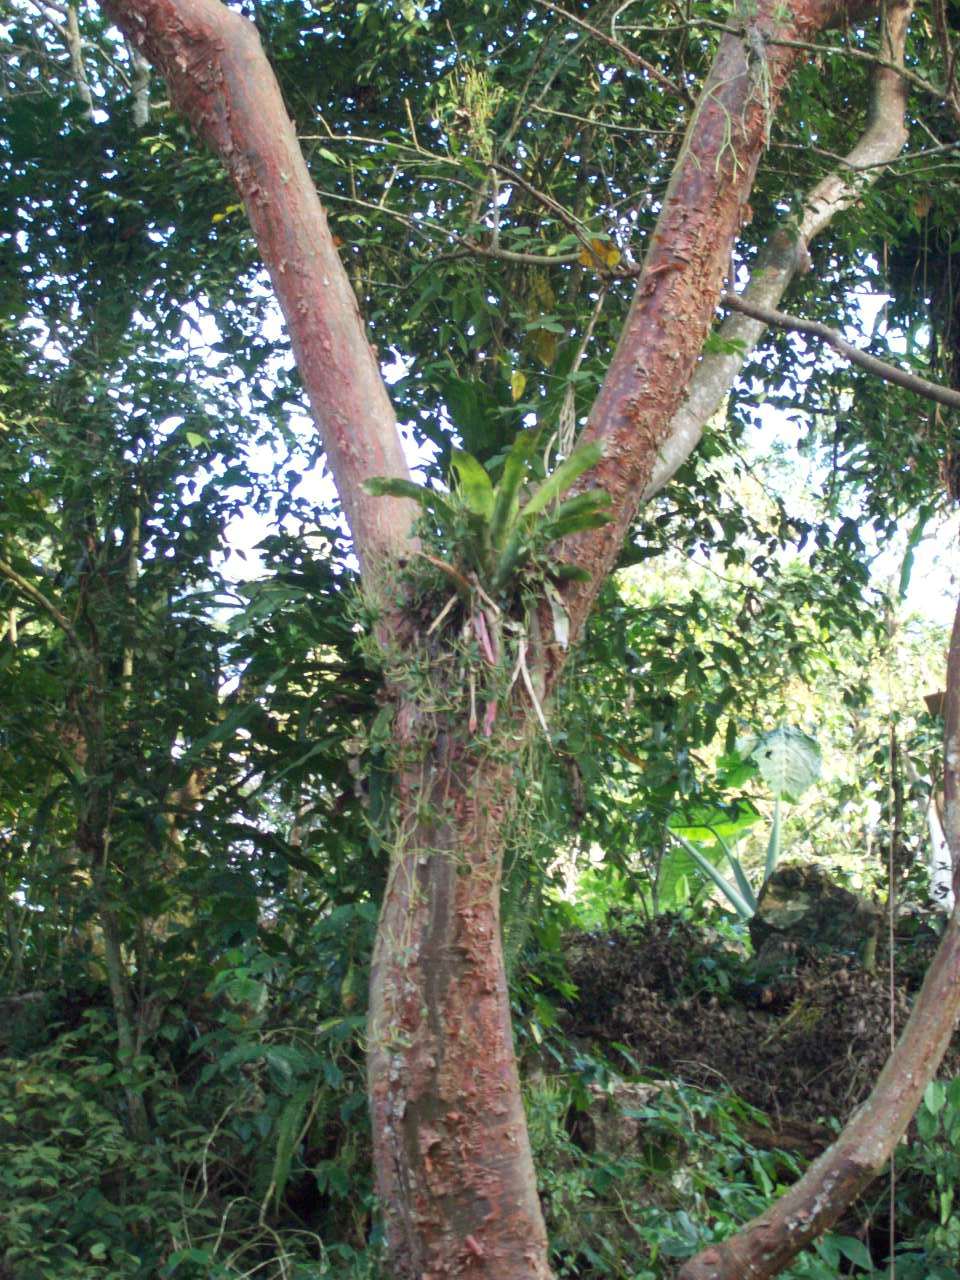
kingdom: Plantae
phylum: Tracheophyta
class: Liliopsida
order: Poales
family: Bromeliaceae
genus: Aechmea
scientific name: Aechmea mexicana
